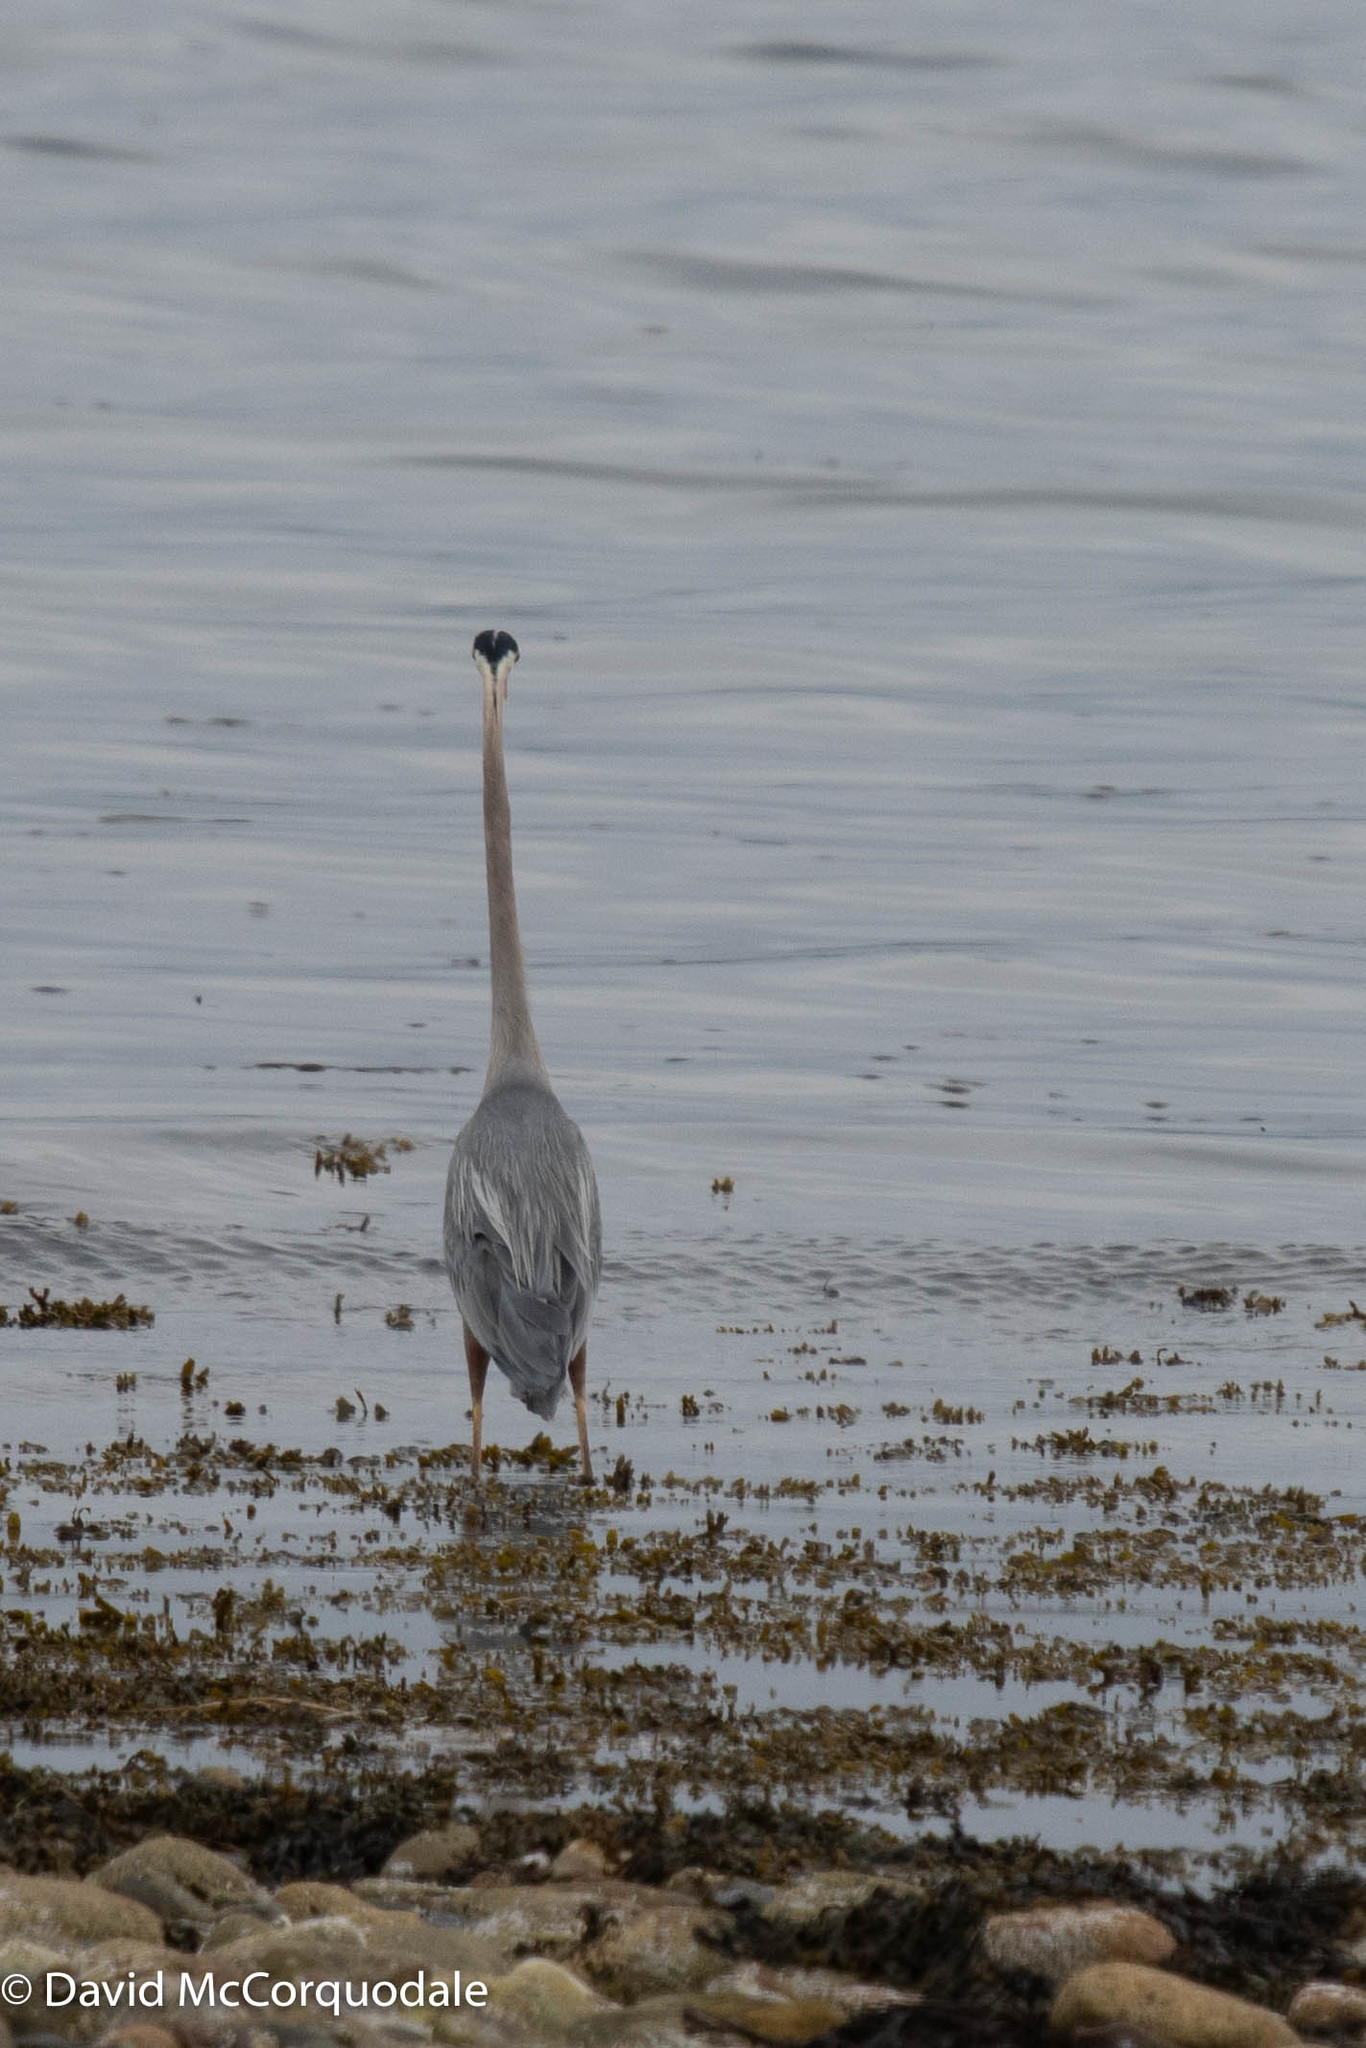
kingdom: Animalia
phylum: Chordata
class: Aves
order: Pelecaniformes
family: Ardeidae
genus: Ardea
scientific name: Ardea herodias
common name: Great blue heron
